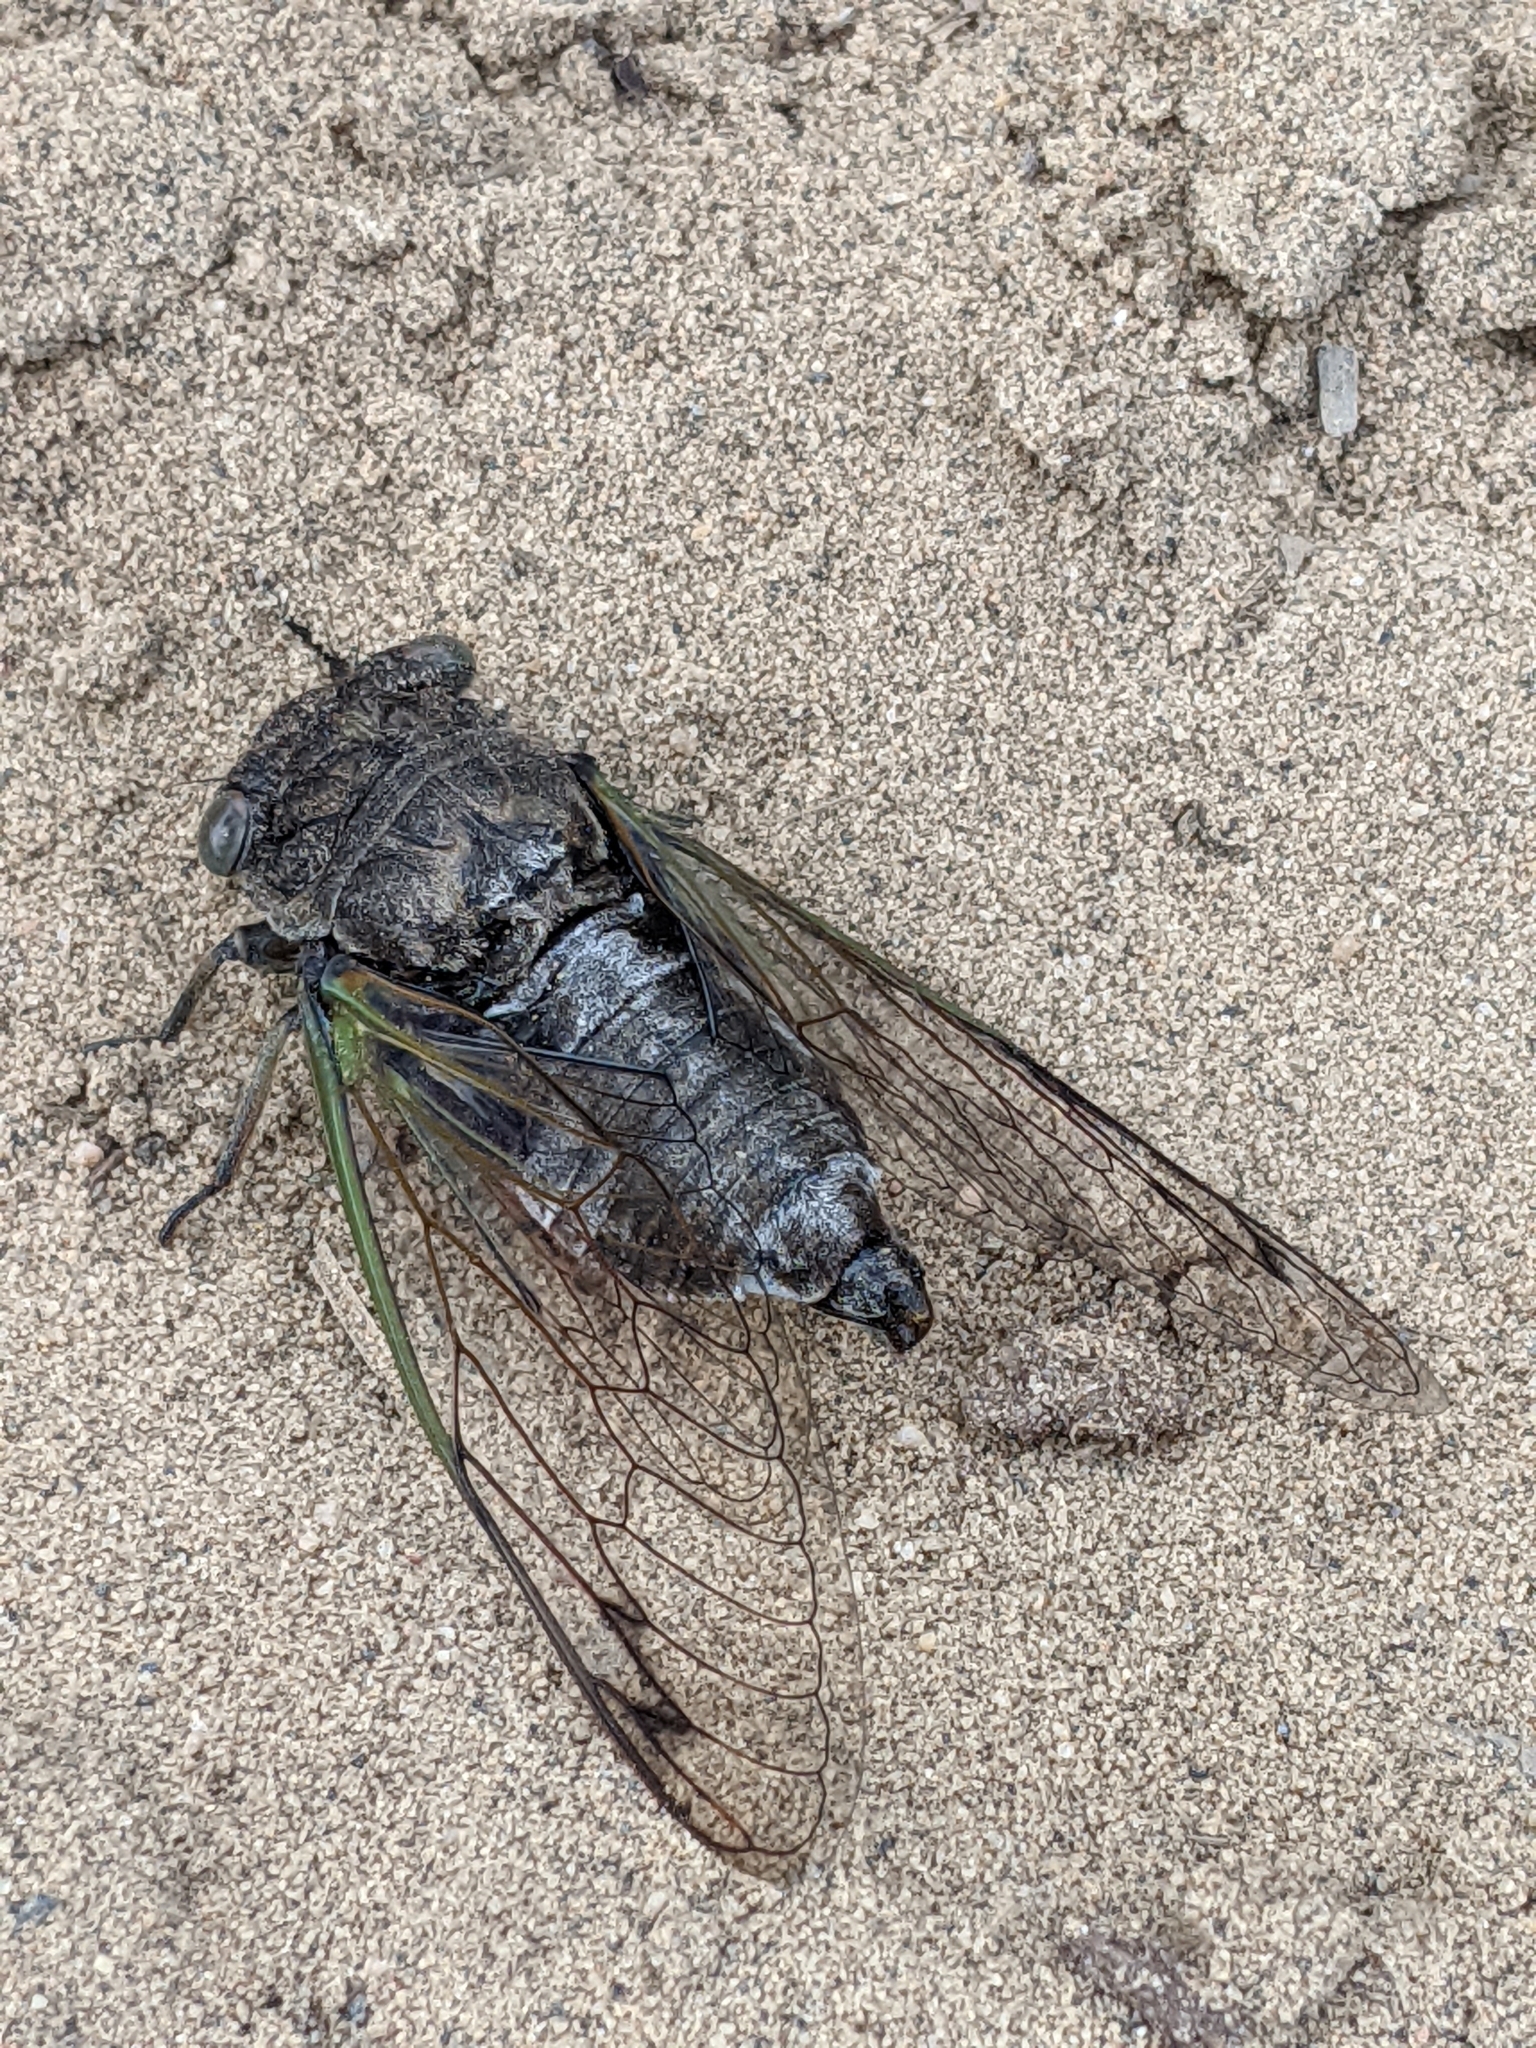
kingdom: Animalia
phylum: Arthropoda
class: Insecta
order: Hemiptera
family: Cicadidae
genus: Neotibicen
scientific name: Neotibicen canicularis
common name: God-day cicada
